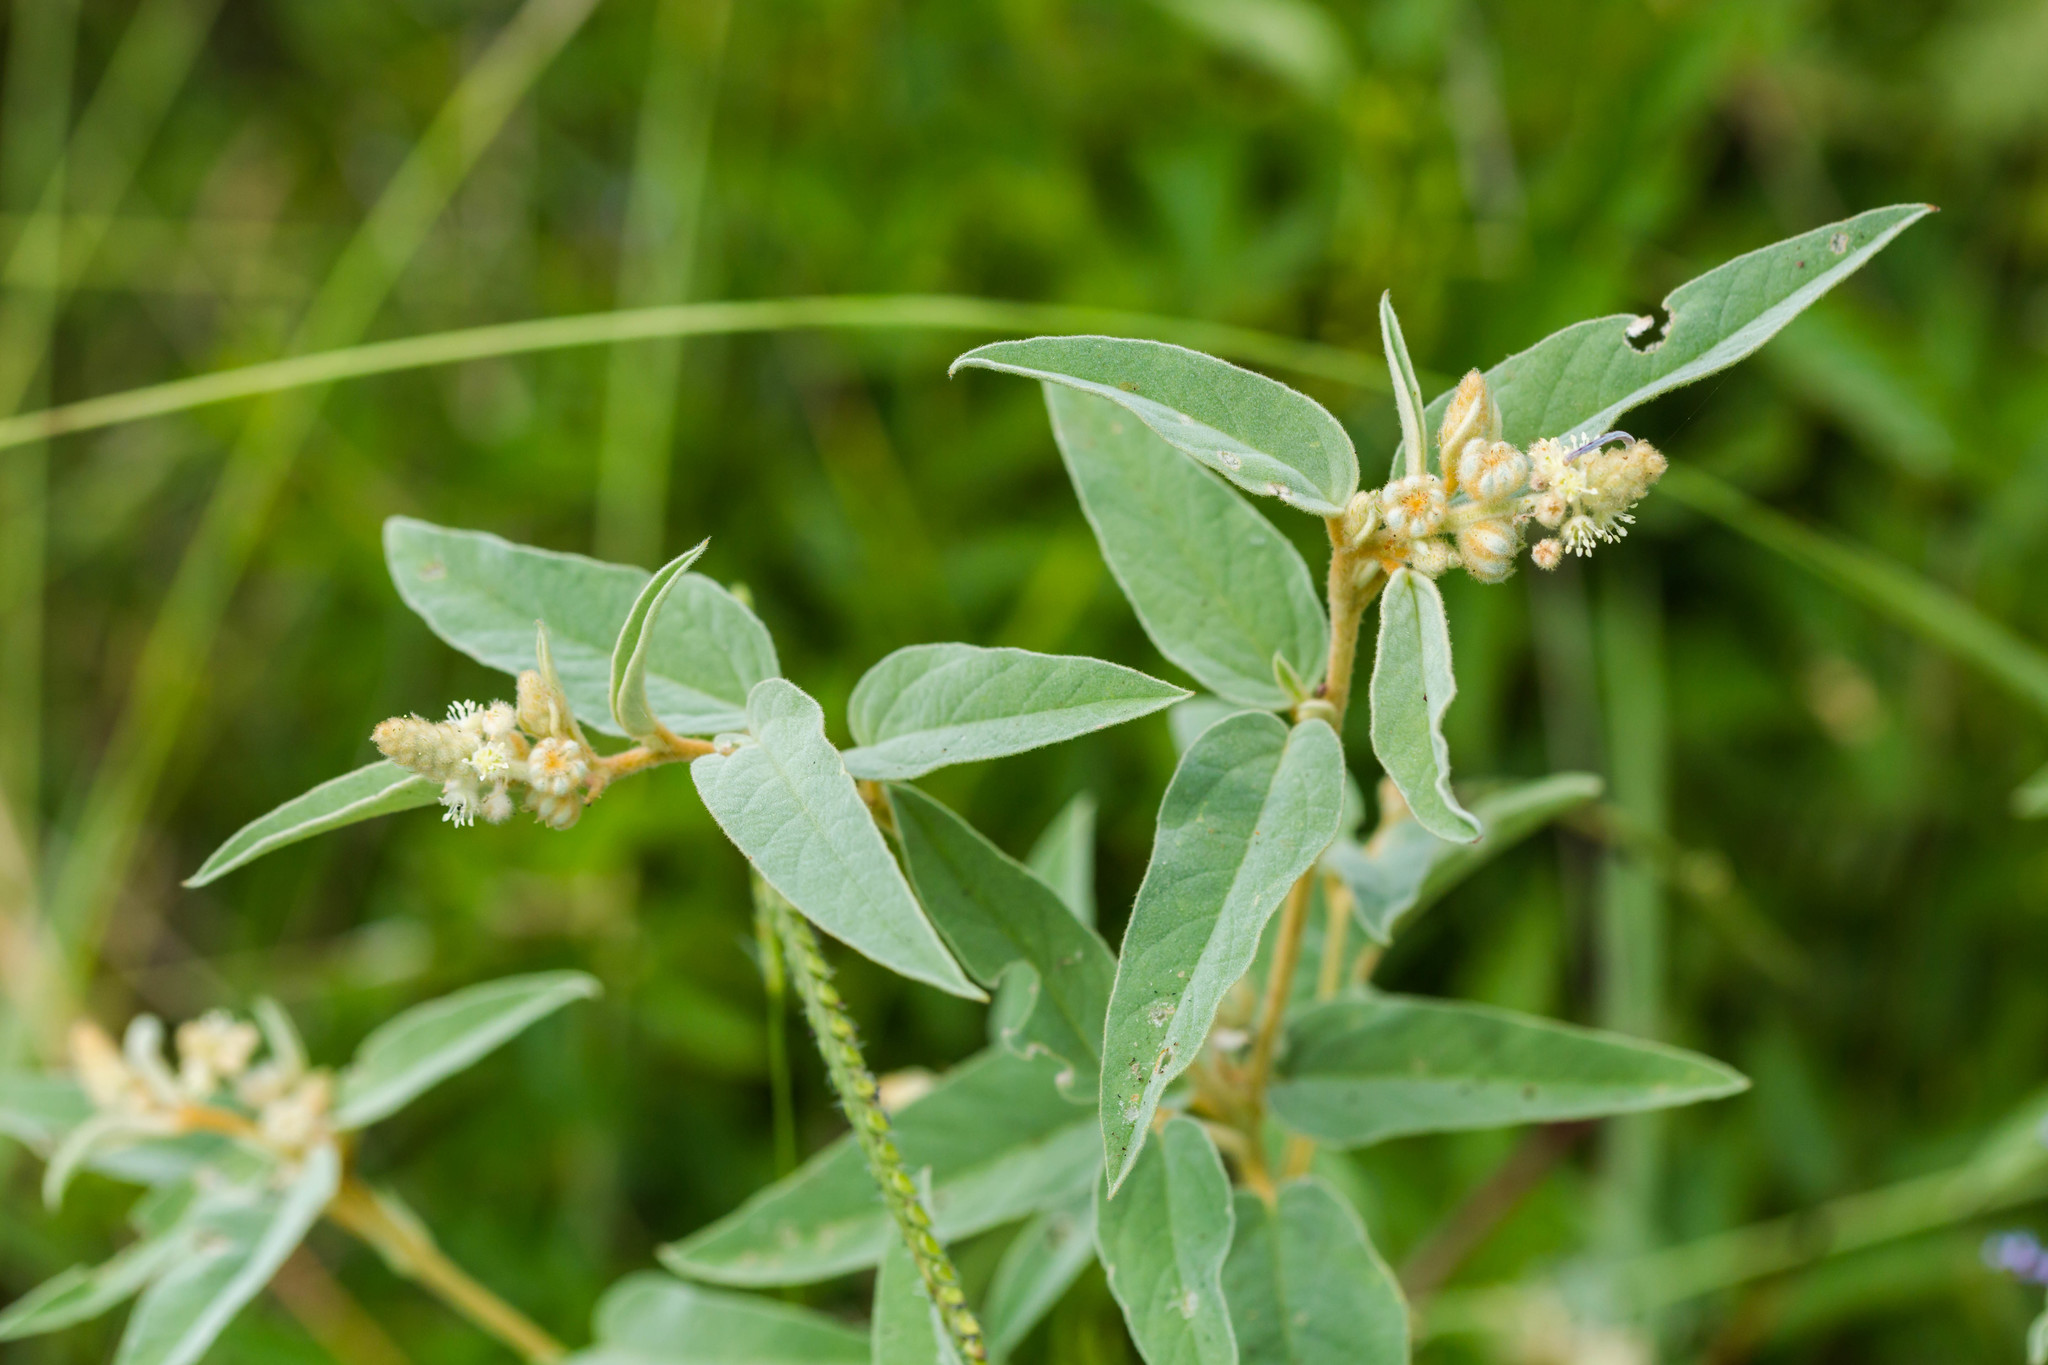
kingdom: Plantae
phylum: Tracheophyta
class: Magnoliopsida
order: Malpighiales
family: Euphorbiaceae
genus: Croton
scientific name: Croton lindheimeri
